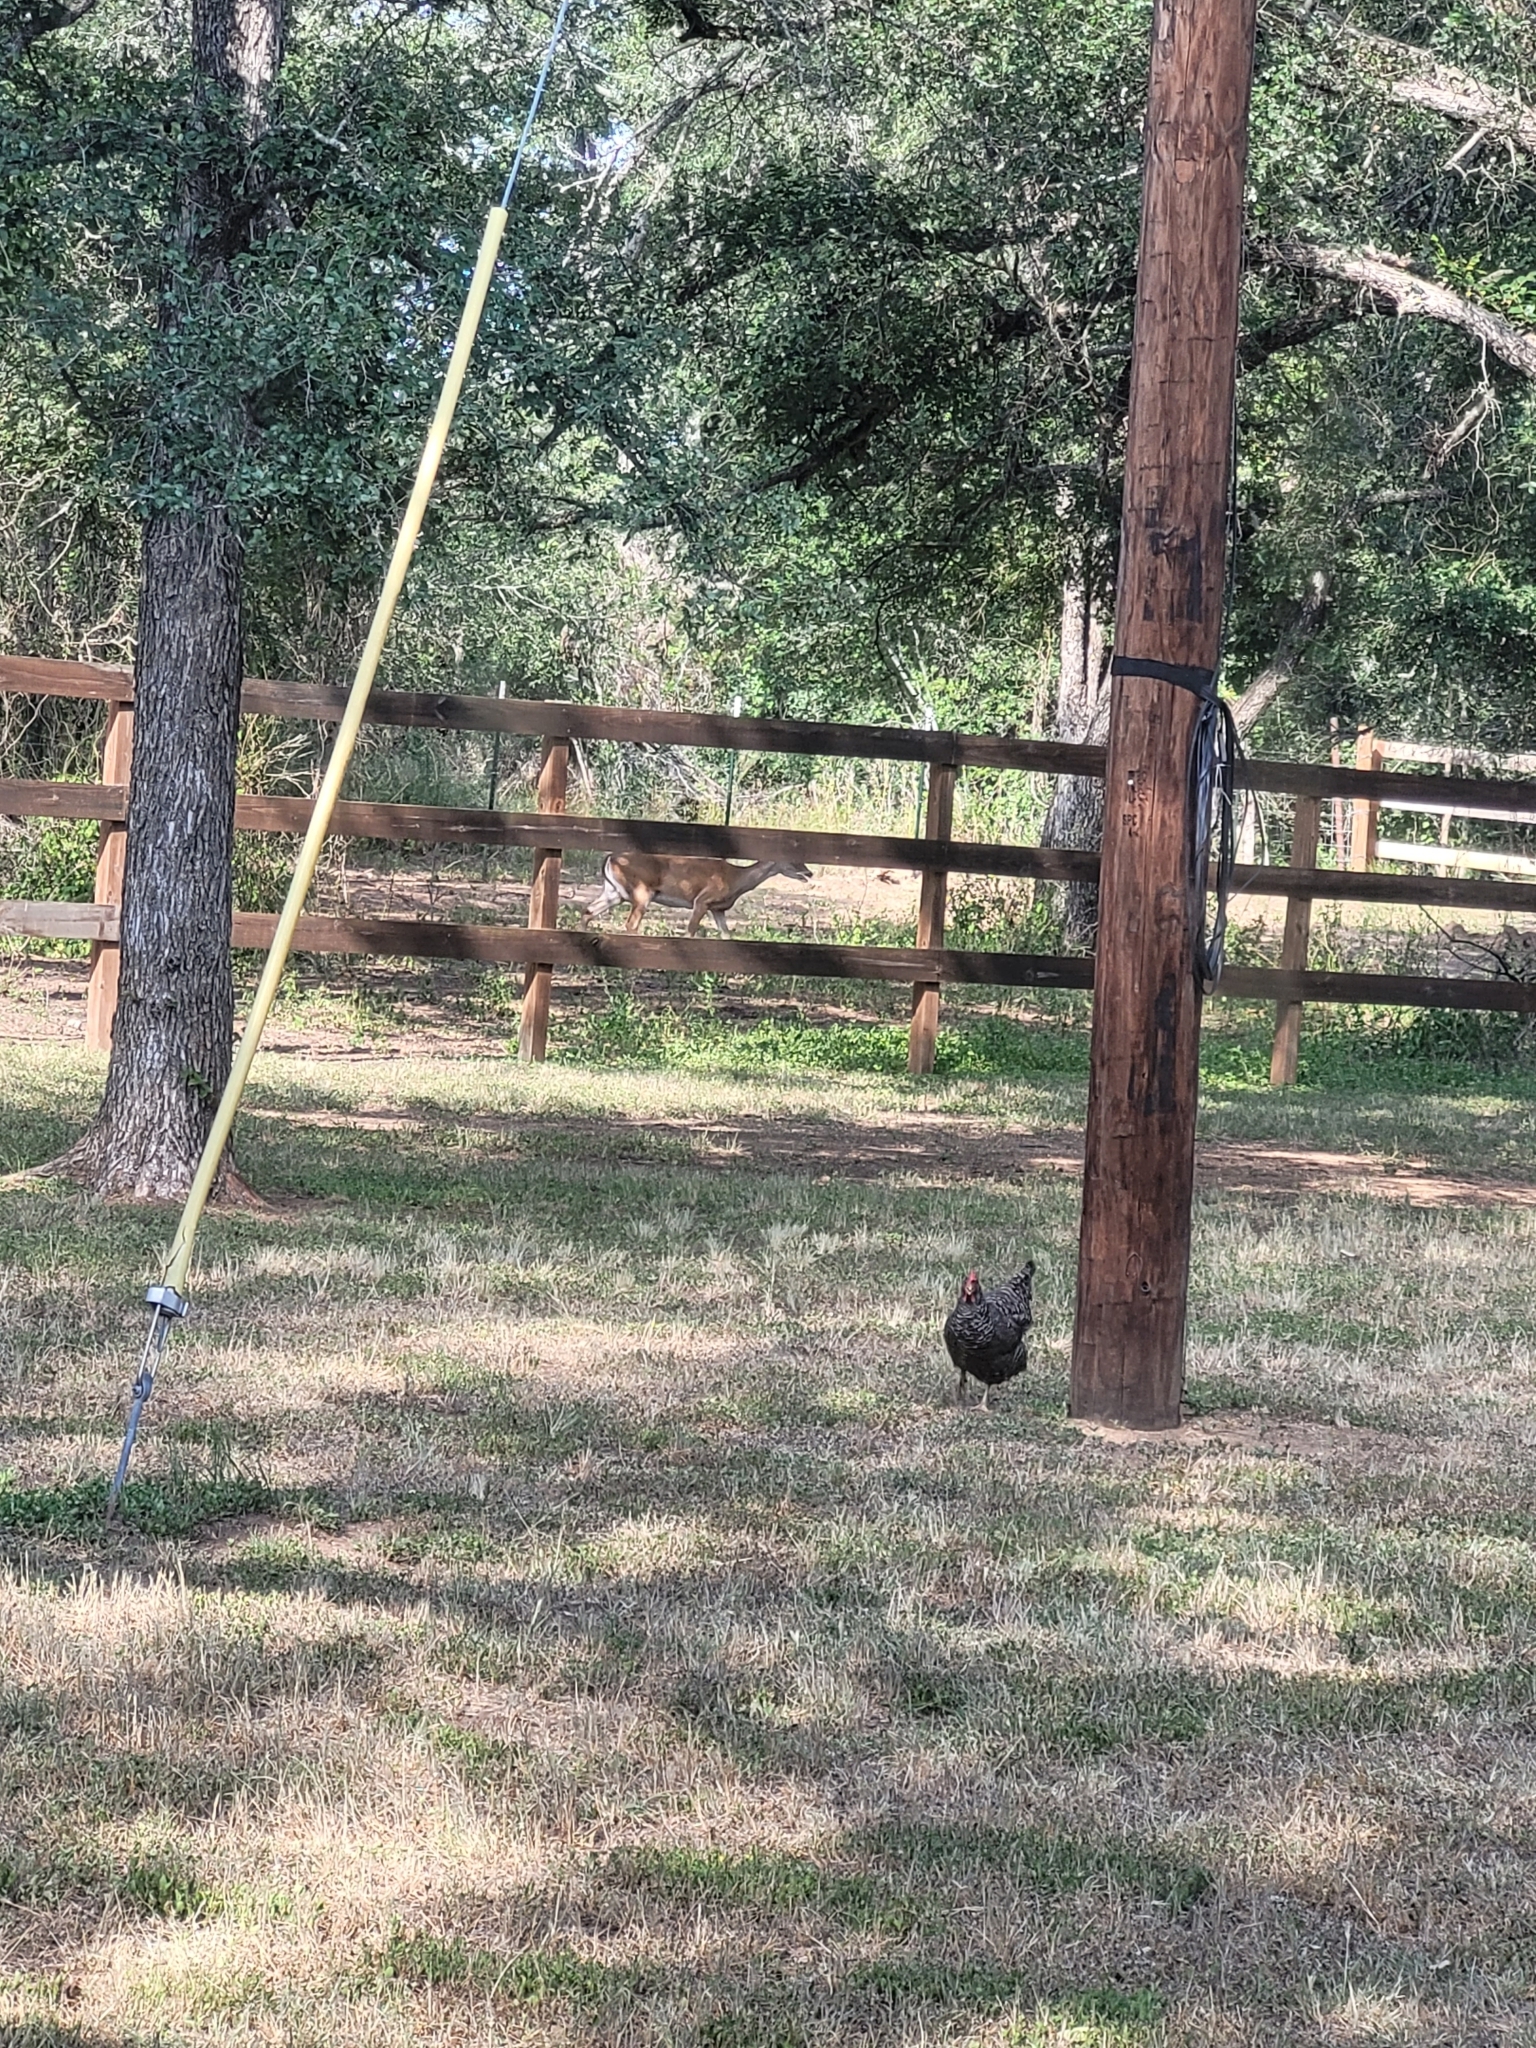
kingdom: Animalia
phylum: Chordata
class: Mammalia
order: Artiodactyla
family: Cervidae
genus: Odocoileus
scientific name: Odocoileus virginianus
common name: White-tailed deer
